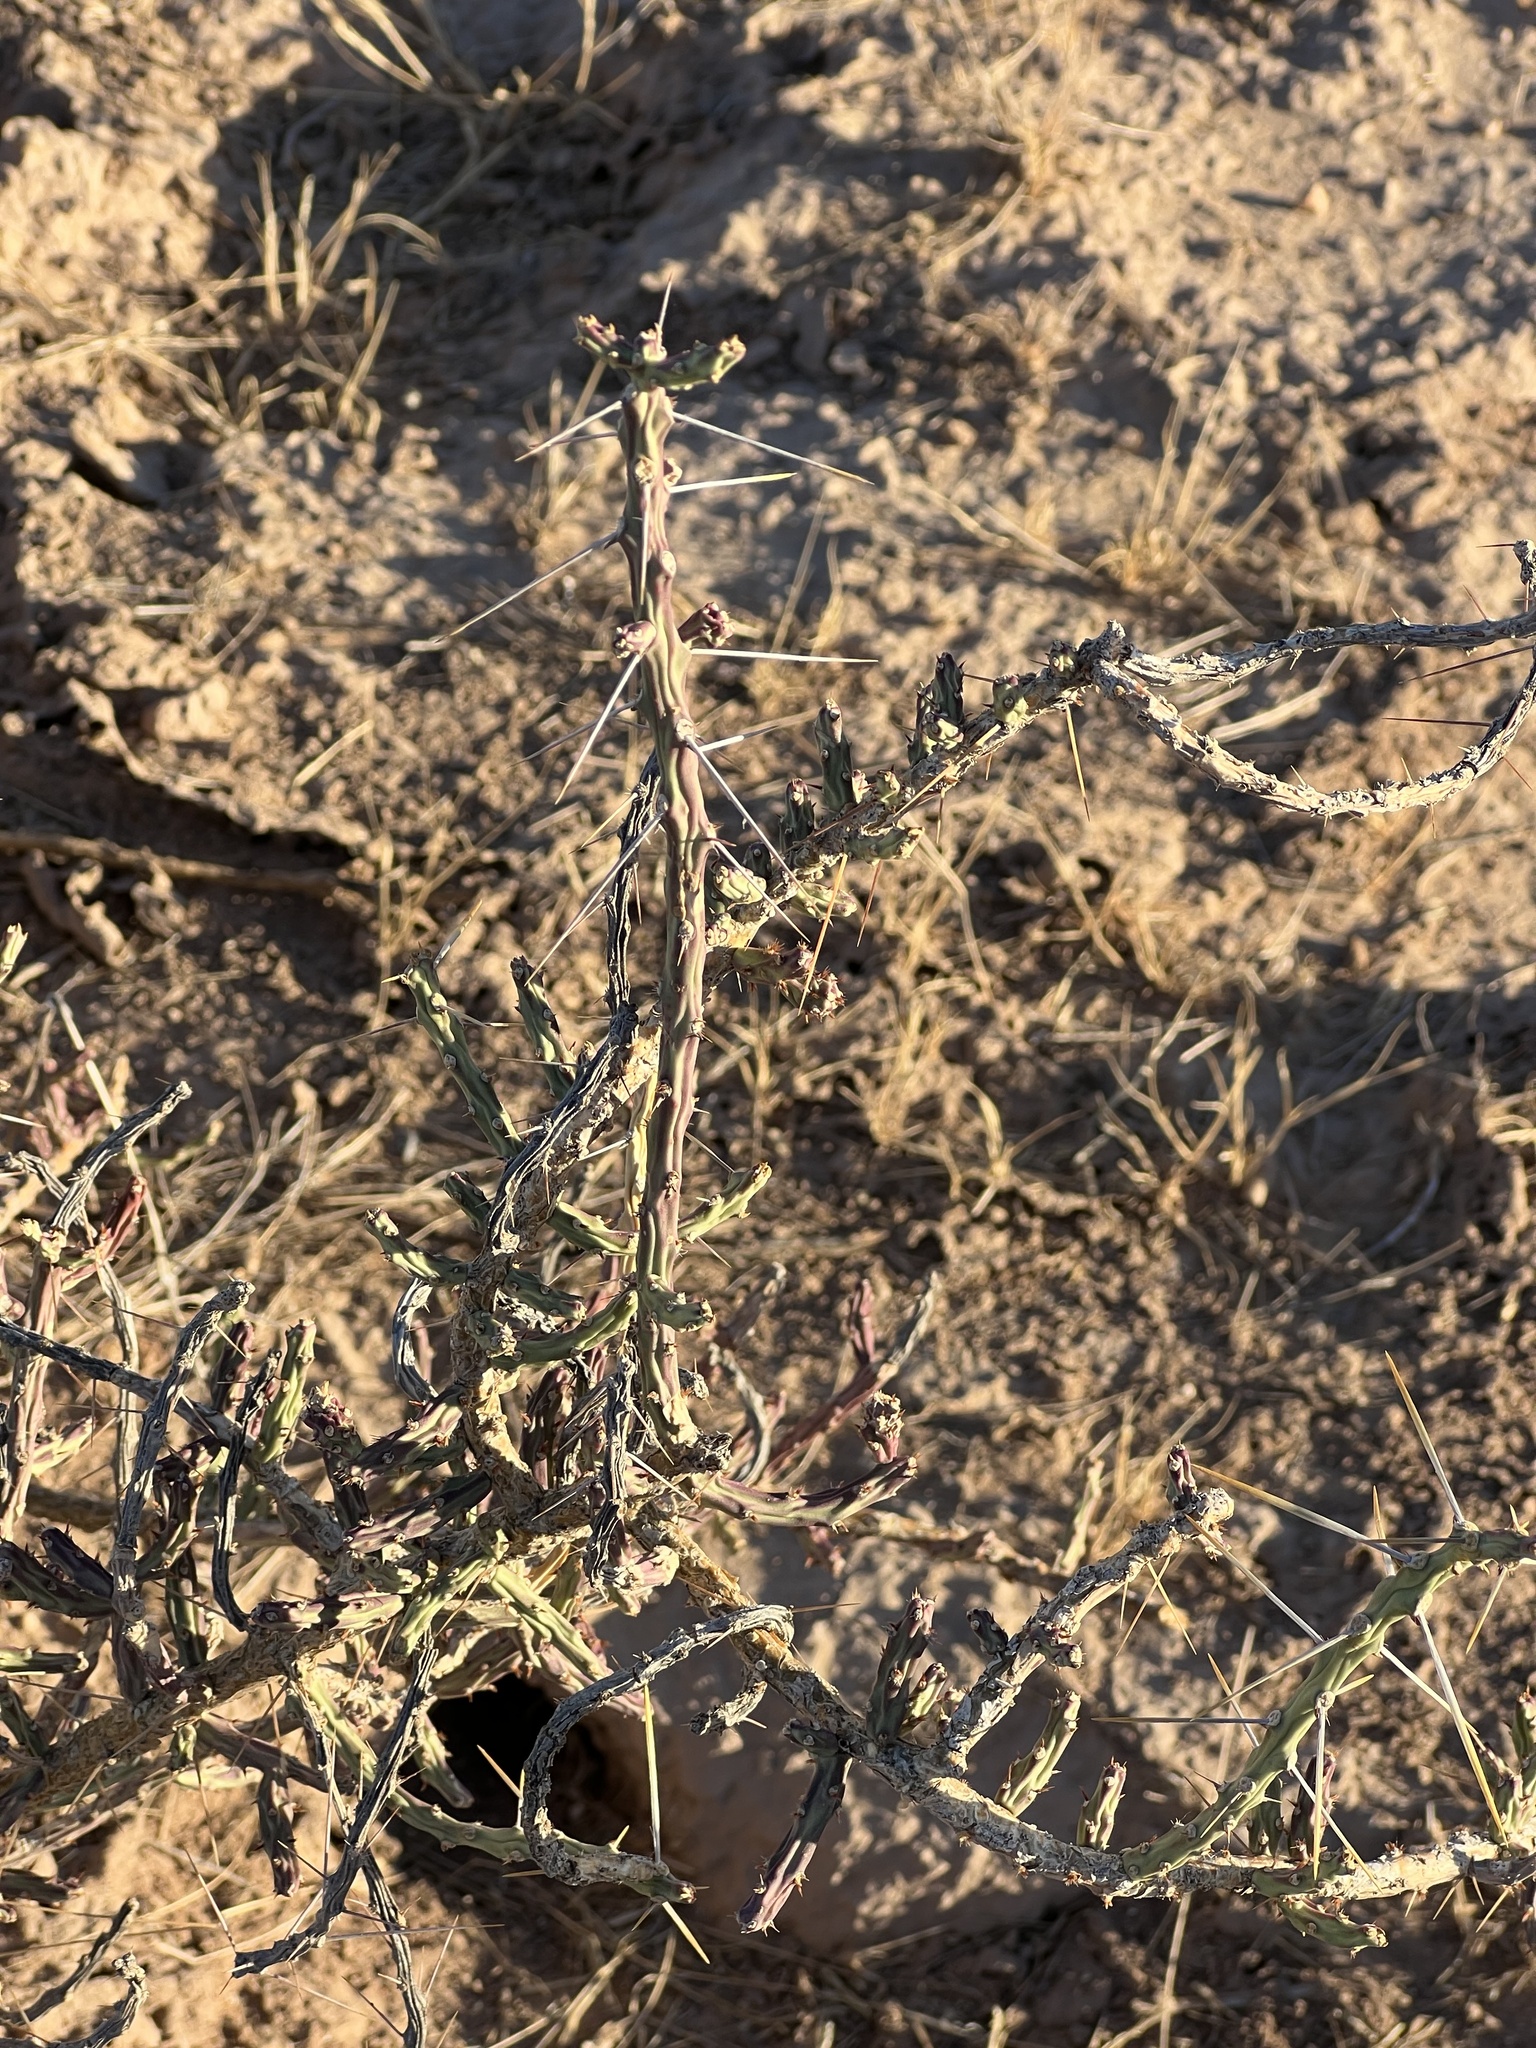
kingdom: Plantae
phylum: Tracheophyta
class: Magnoliopsida
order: Caryophyllales
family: Cactaceae
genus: Cylindropuntia
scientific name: Cylindropuntia leptocaulis
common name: Christmas cactus
